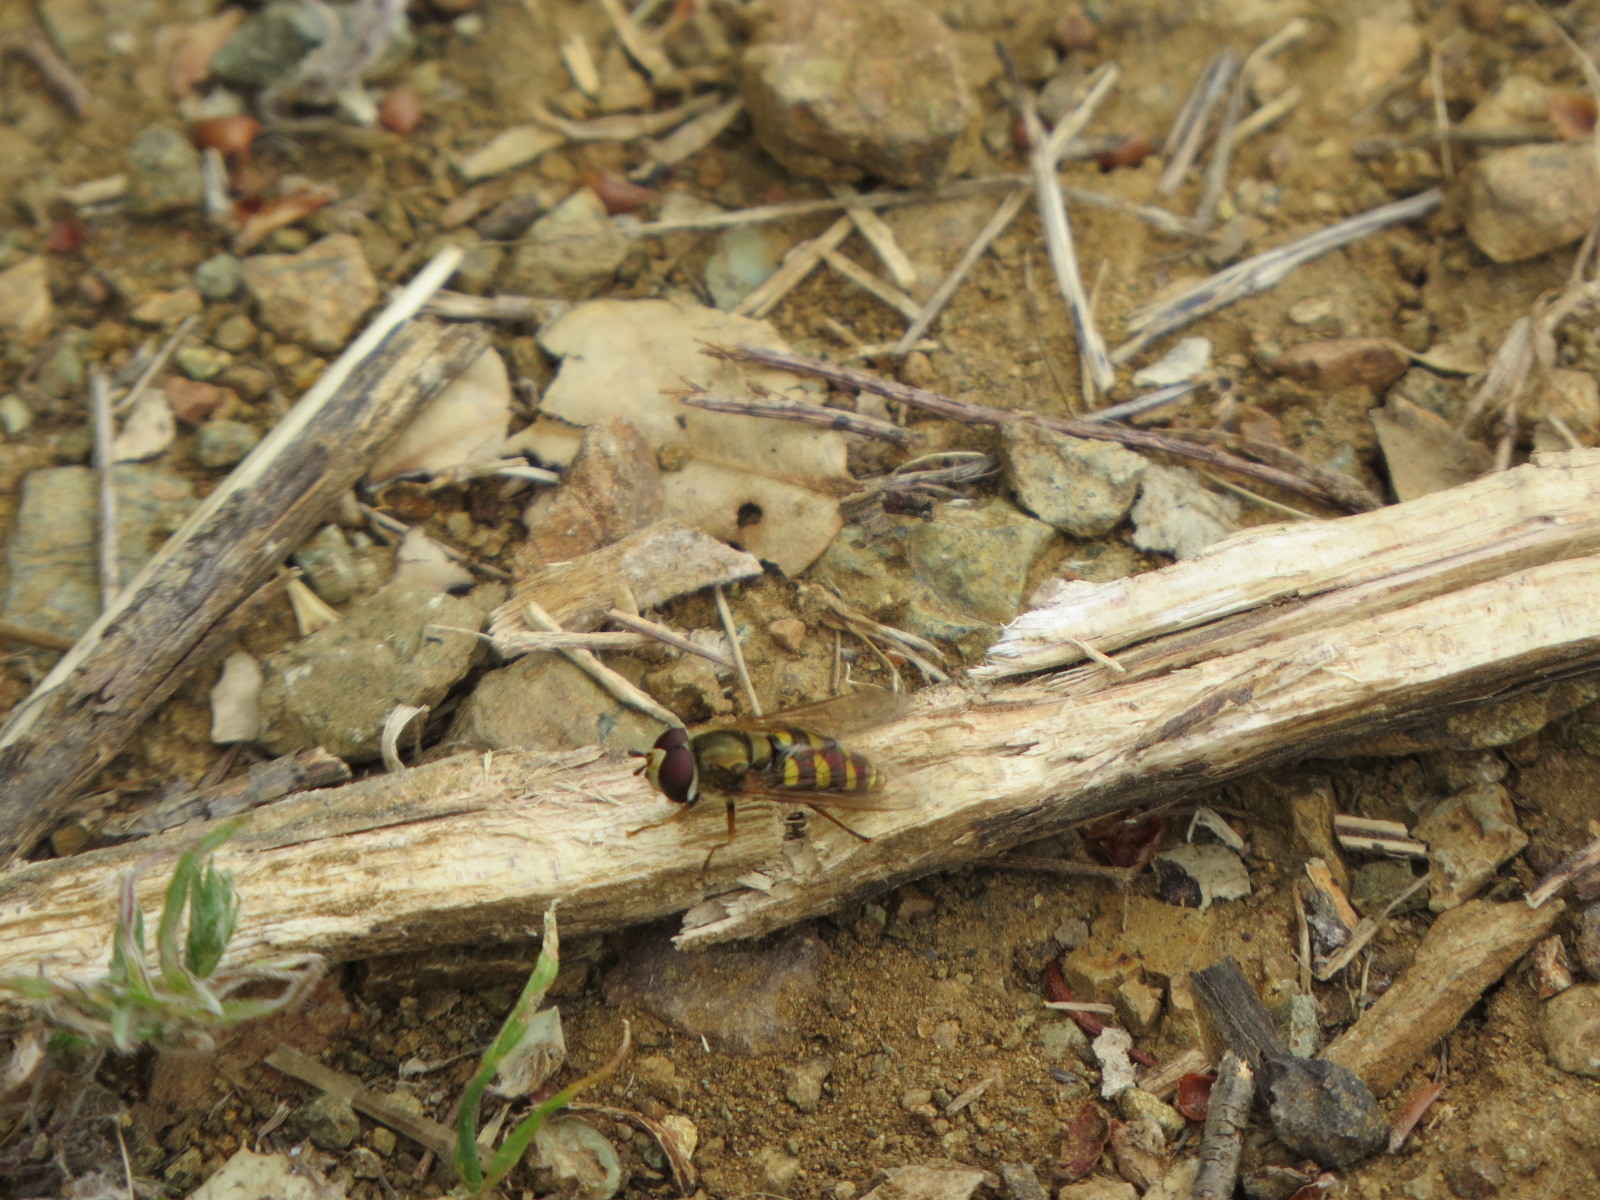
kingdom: Animalia
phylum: Arthropoda
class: Insecta
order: Diptera
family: Syrphidae
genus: Eupeodes
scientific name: Eupeodes fumipennis
